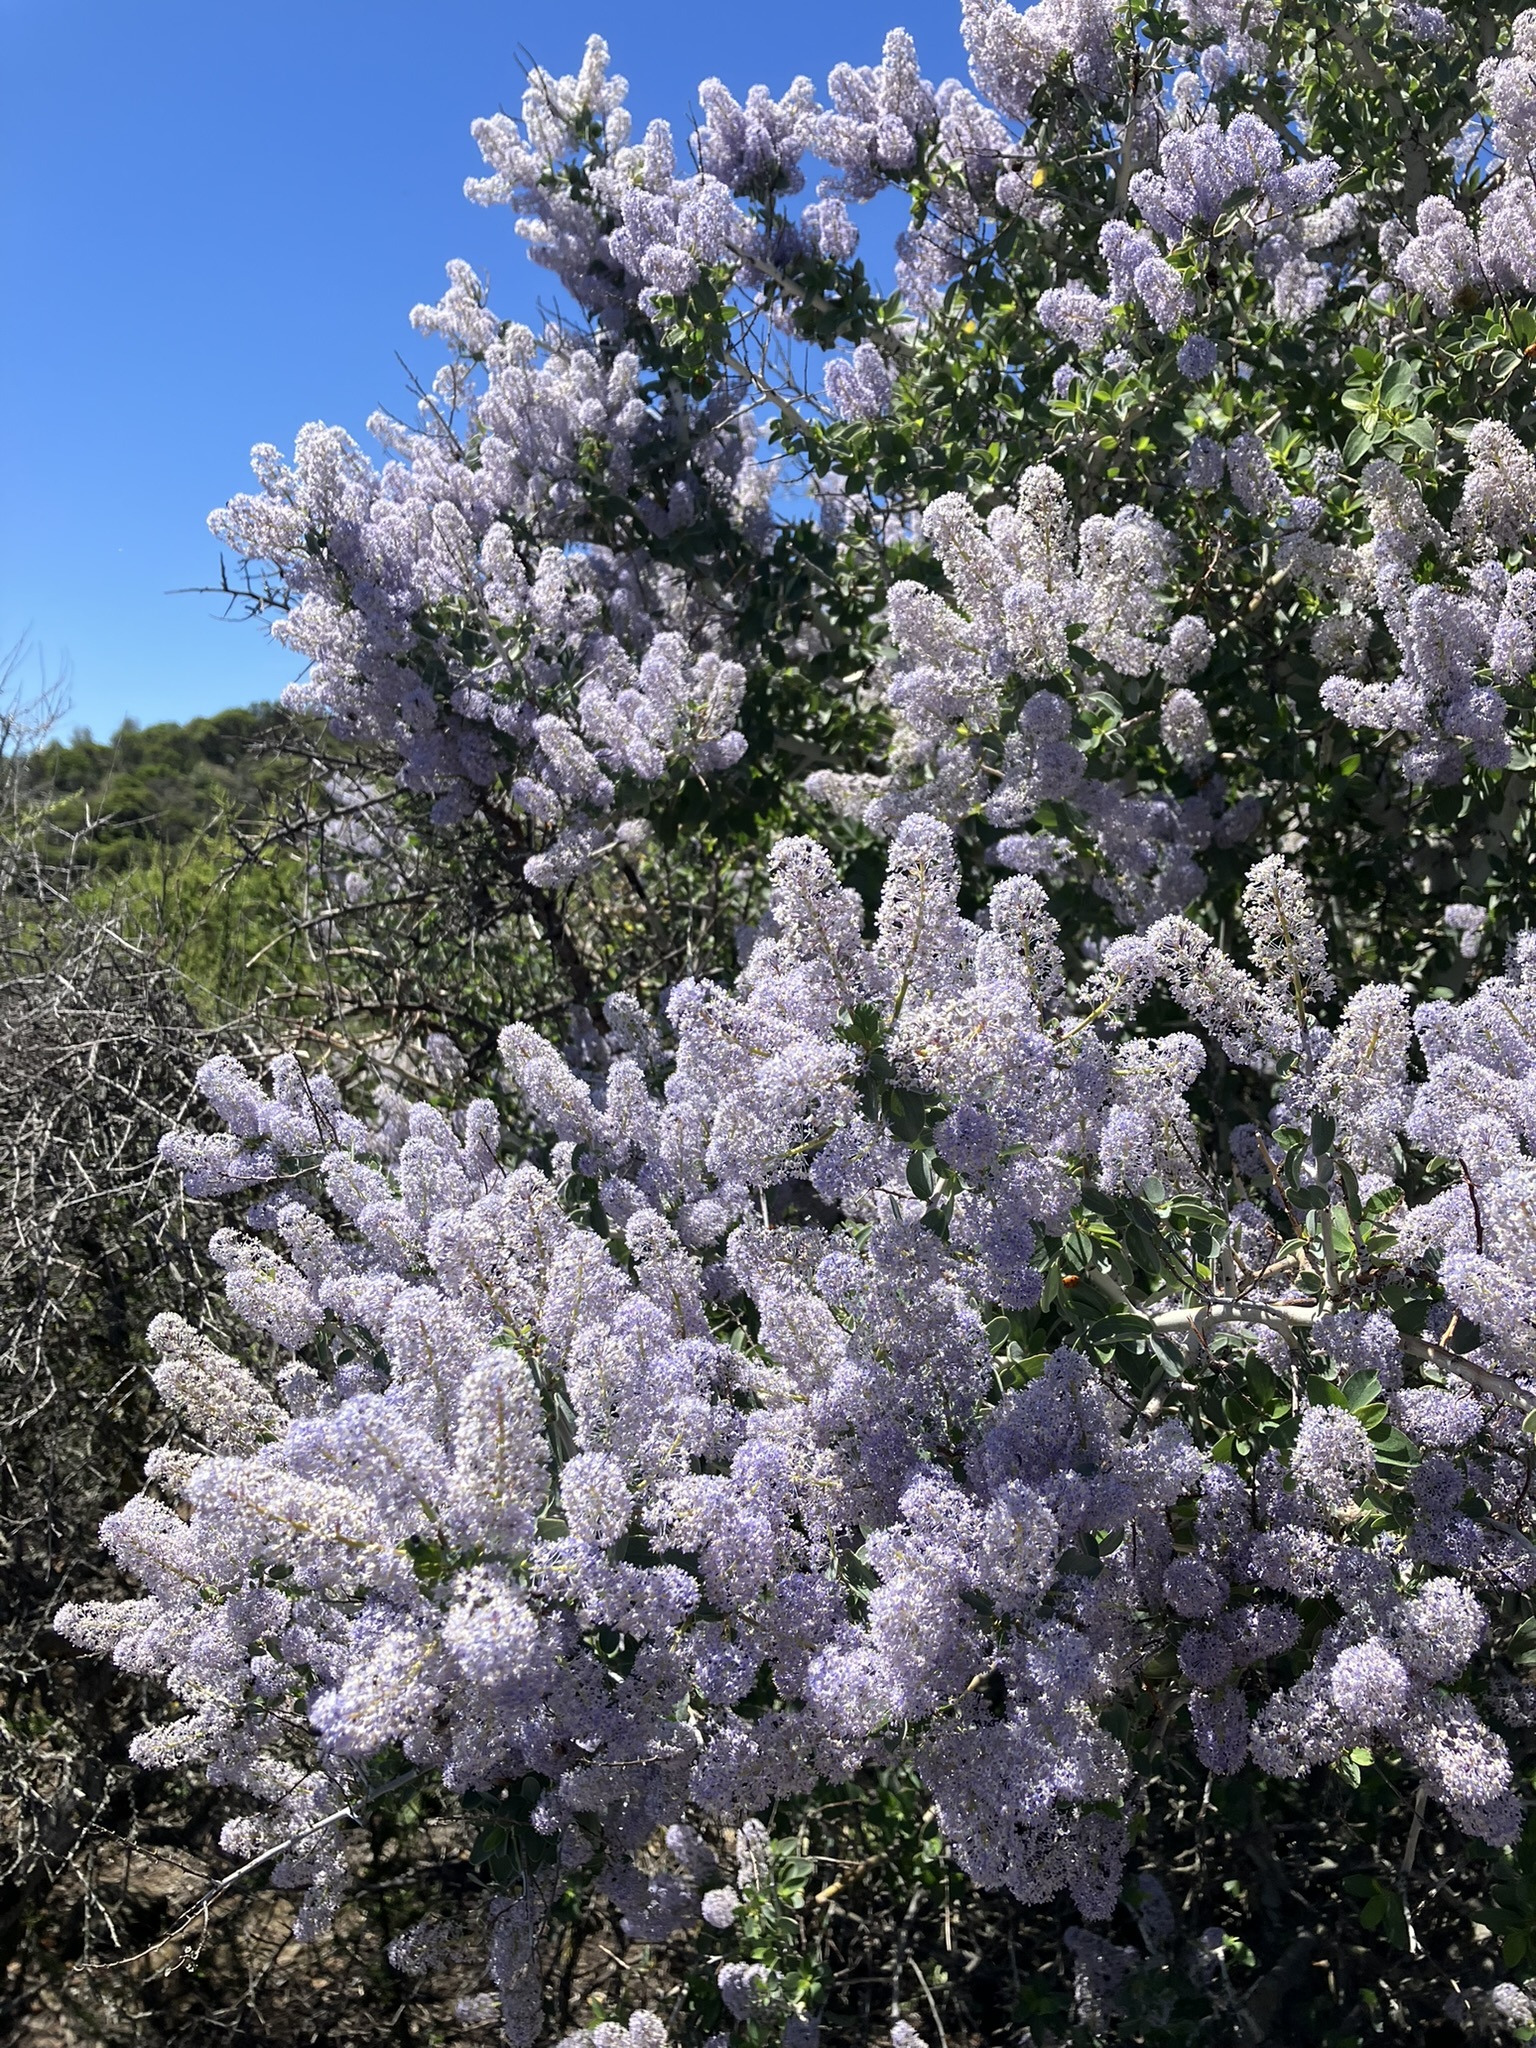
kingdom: Plantae
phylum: Tracheophyta
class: Magnoliopsida
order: Rosales
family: Rhamnaceae
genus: Ceanothus
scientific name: Ceanothus leucodermis
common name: Chaparral whitethorn
